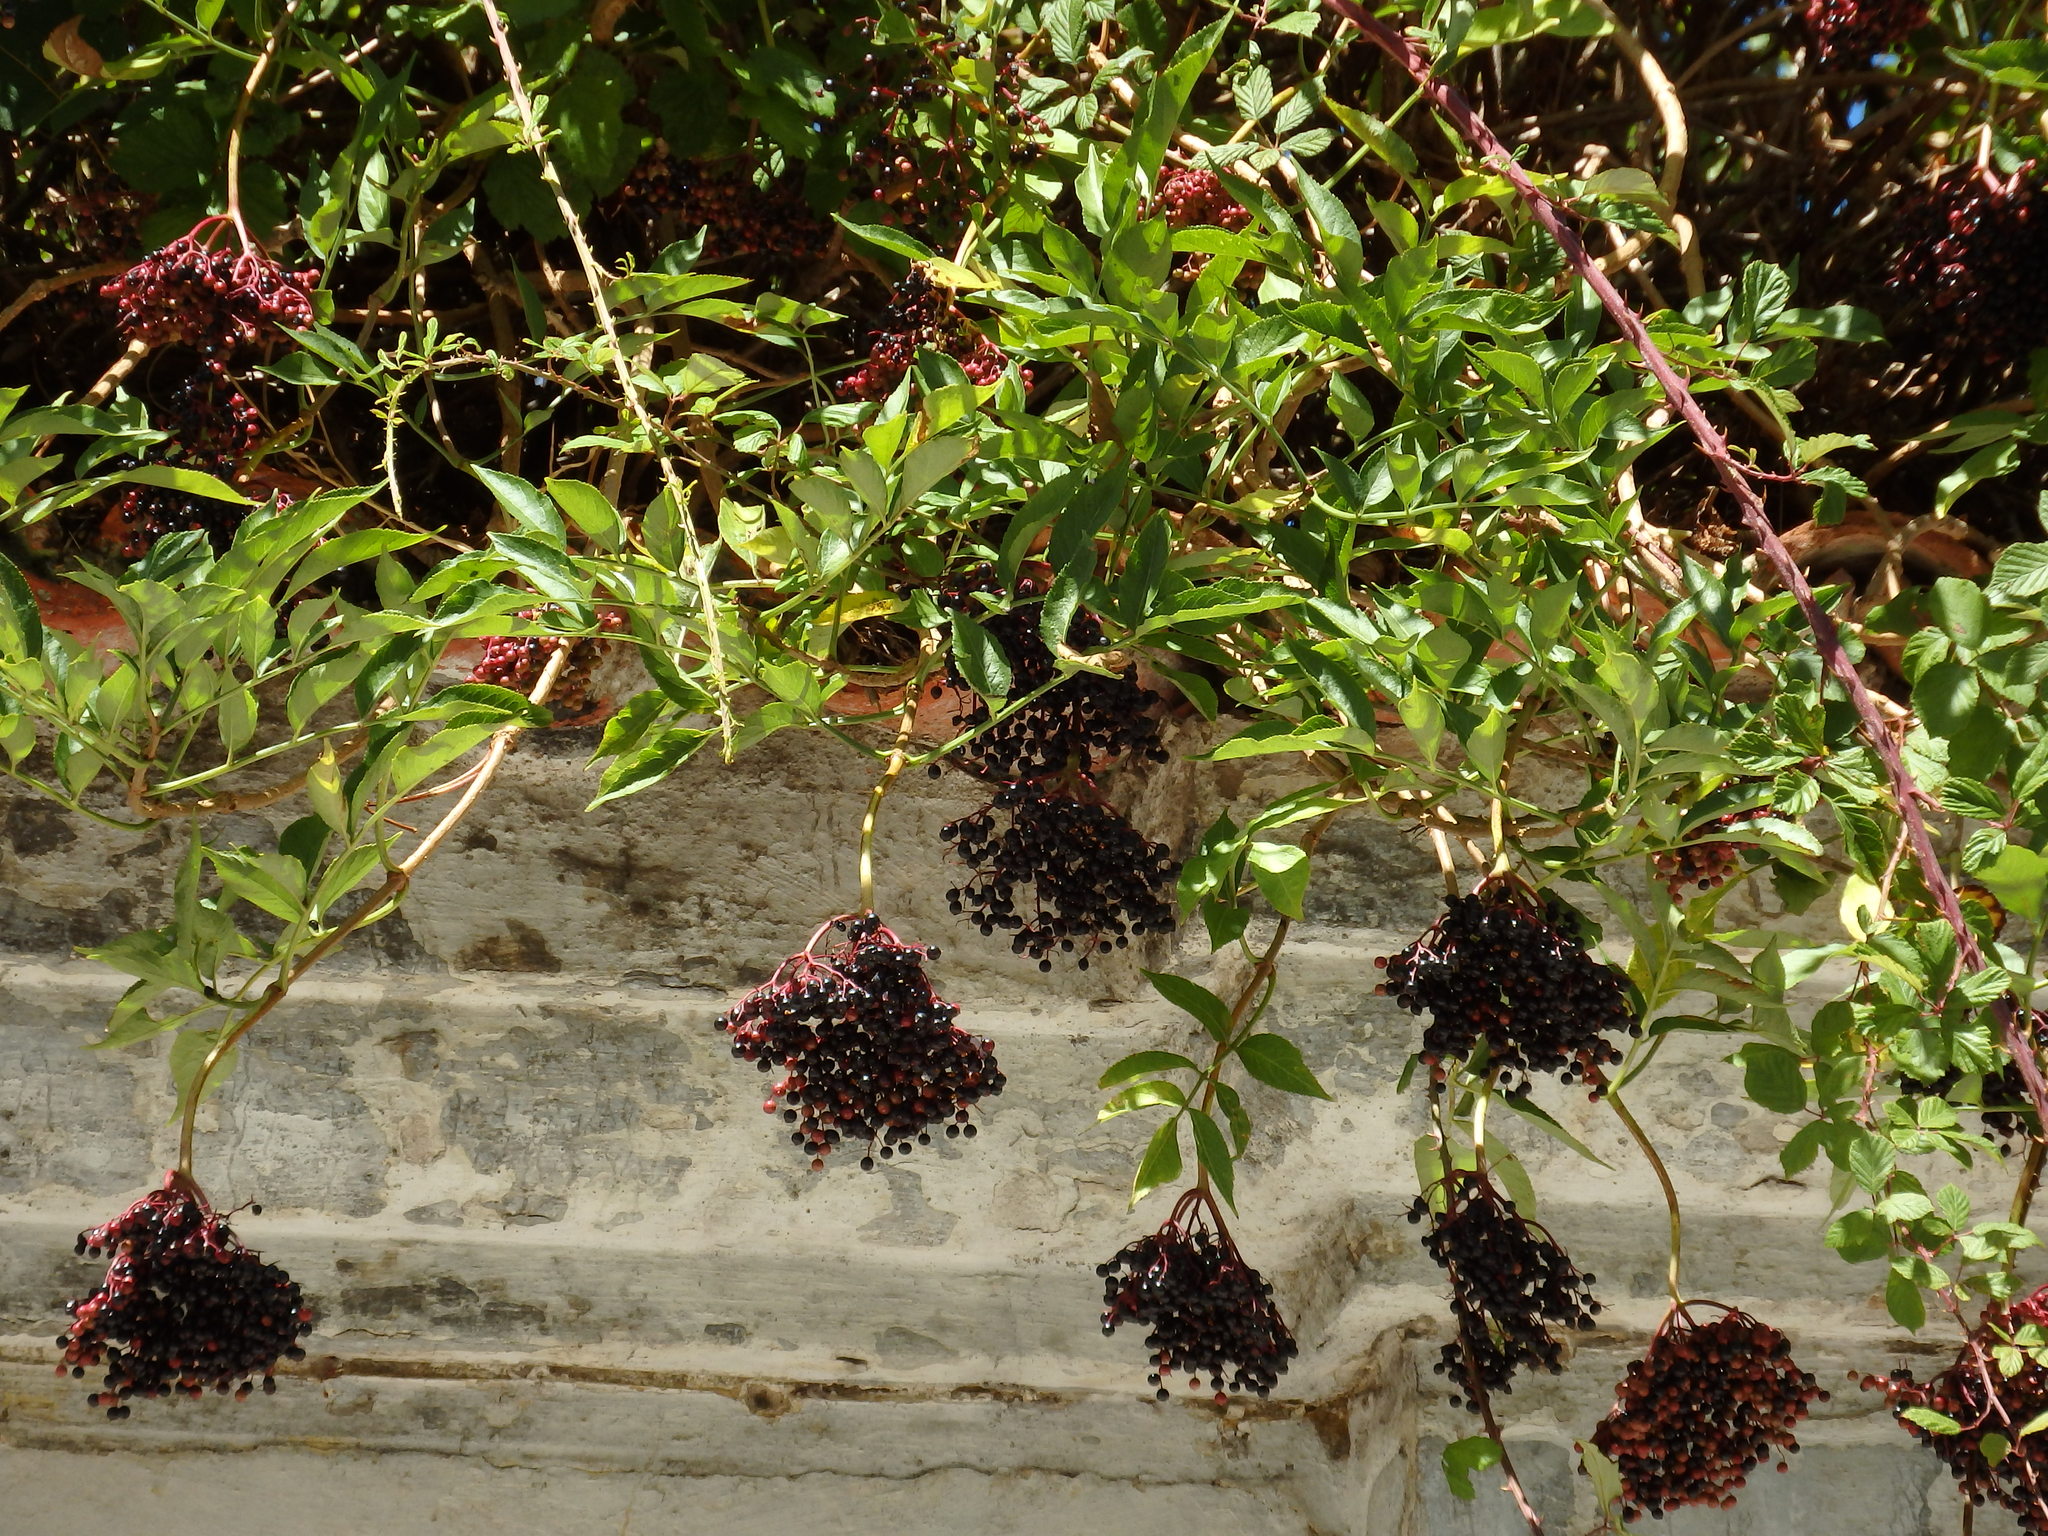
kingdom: Plantae
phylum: Tracheophyta
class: Magnoliopsida
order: Dipsacales
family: Viburnaceae
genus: Sambucus
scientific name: Sambucus nigra
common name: Elder
